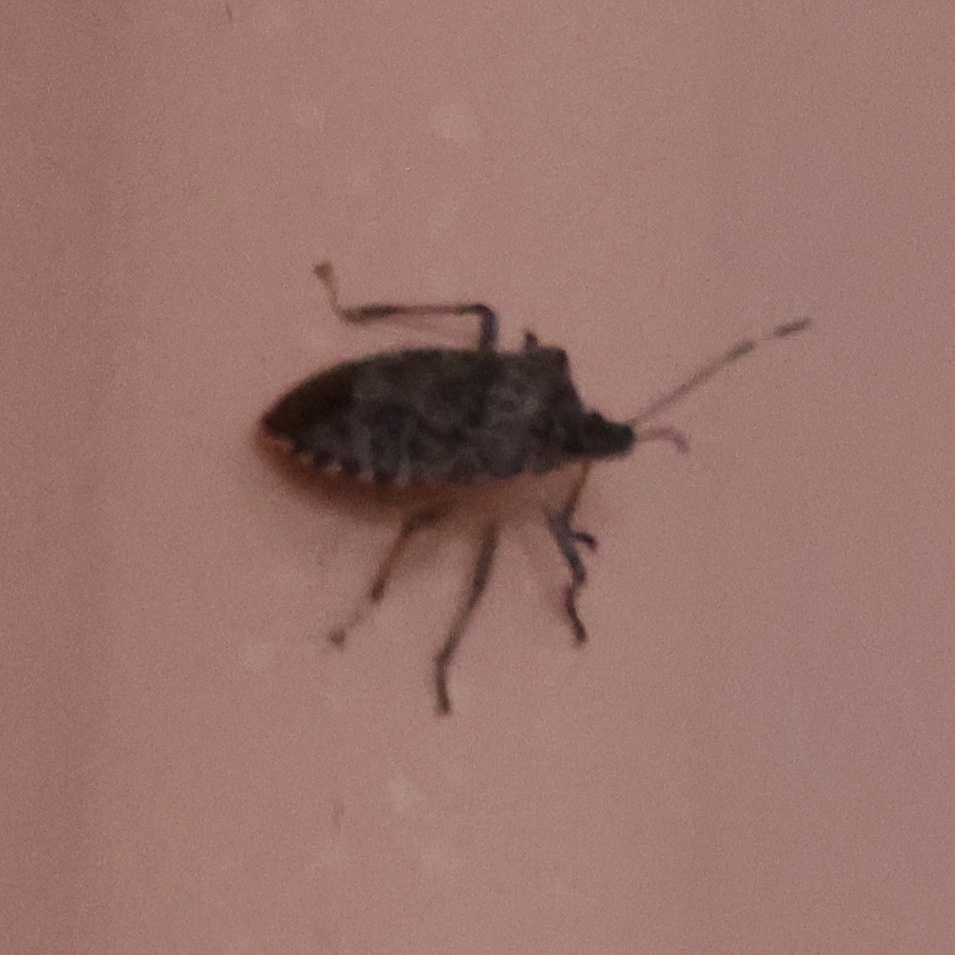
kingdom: Animalia
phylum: Arthropoda
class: Insecta
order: Hemiptera
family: Pentatomidae
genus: Halyomorpha
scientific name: Halyomorpha halys
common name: Brown marmorated stink bug
